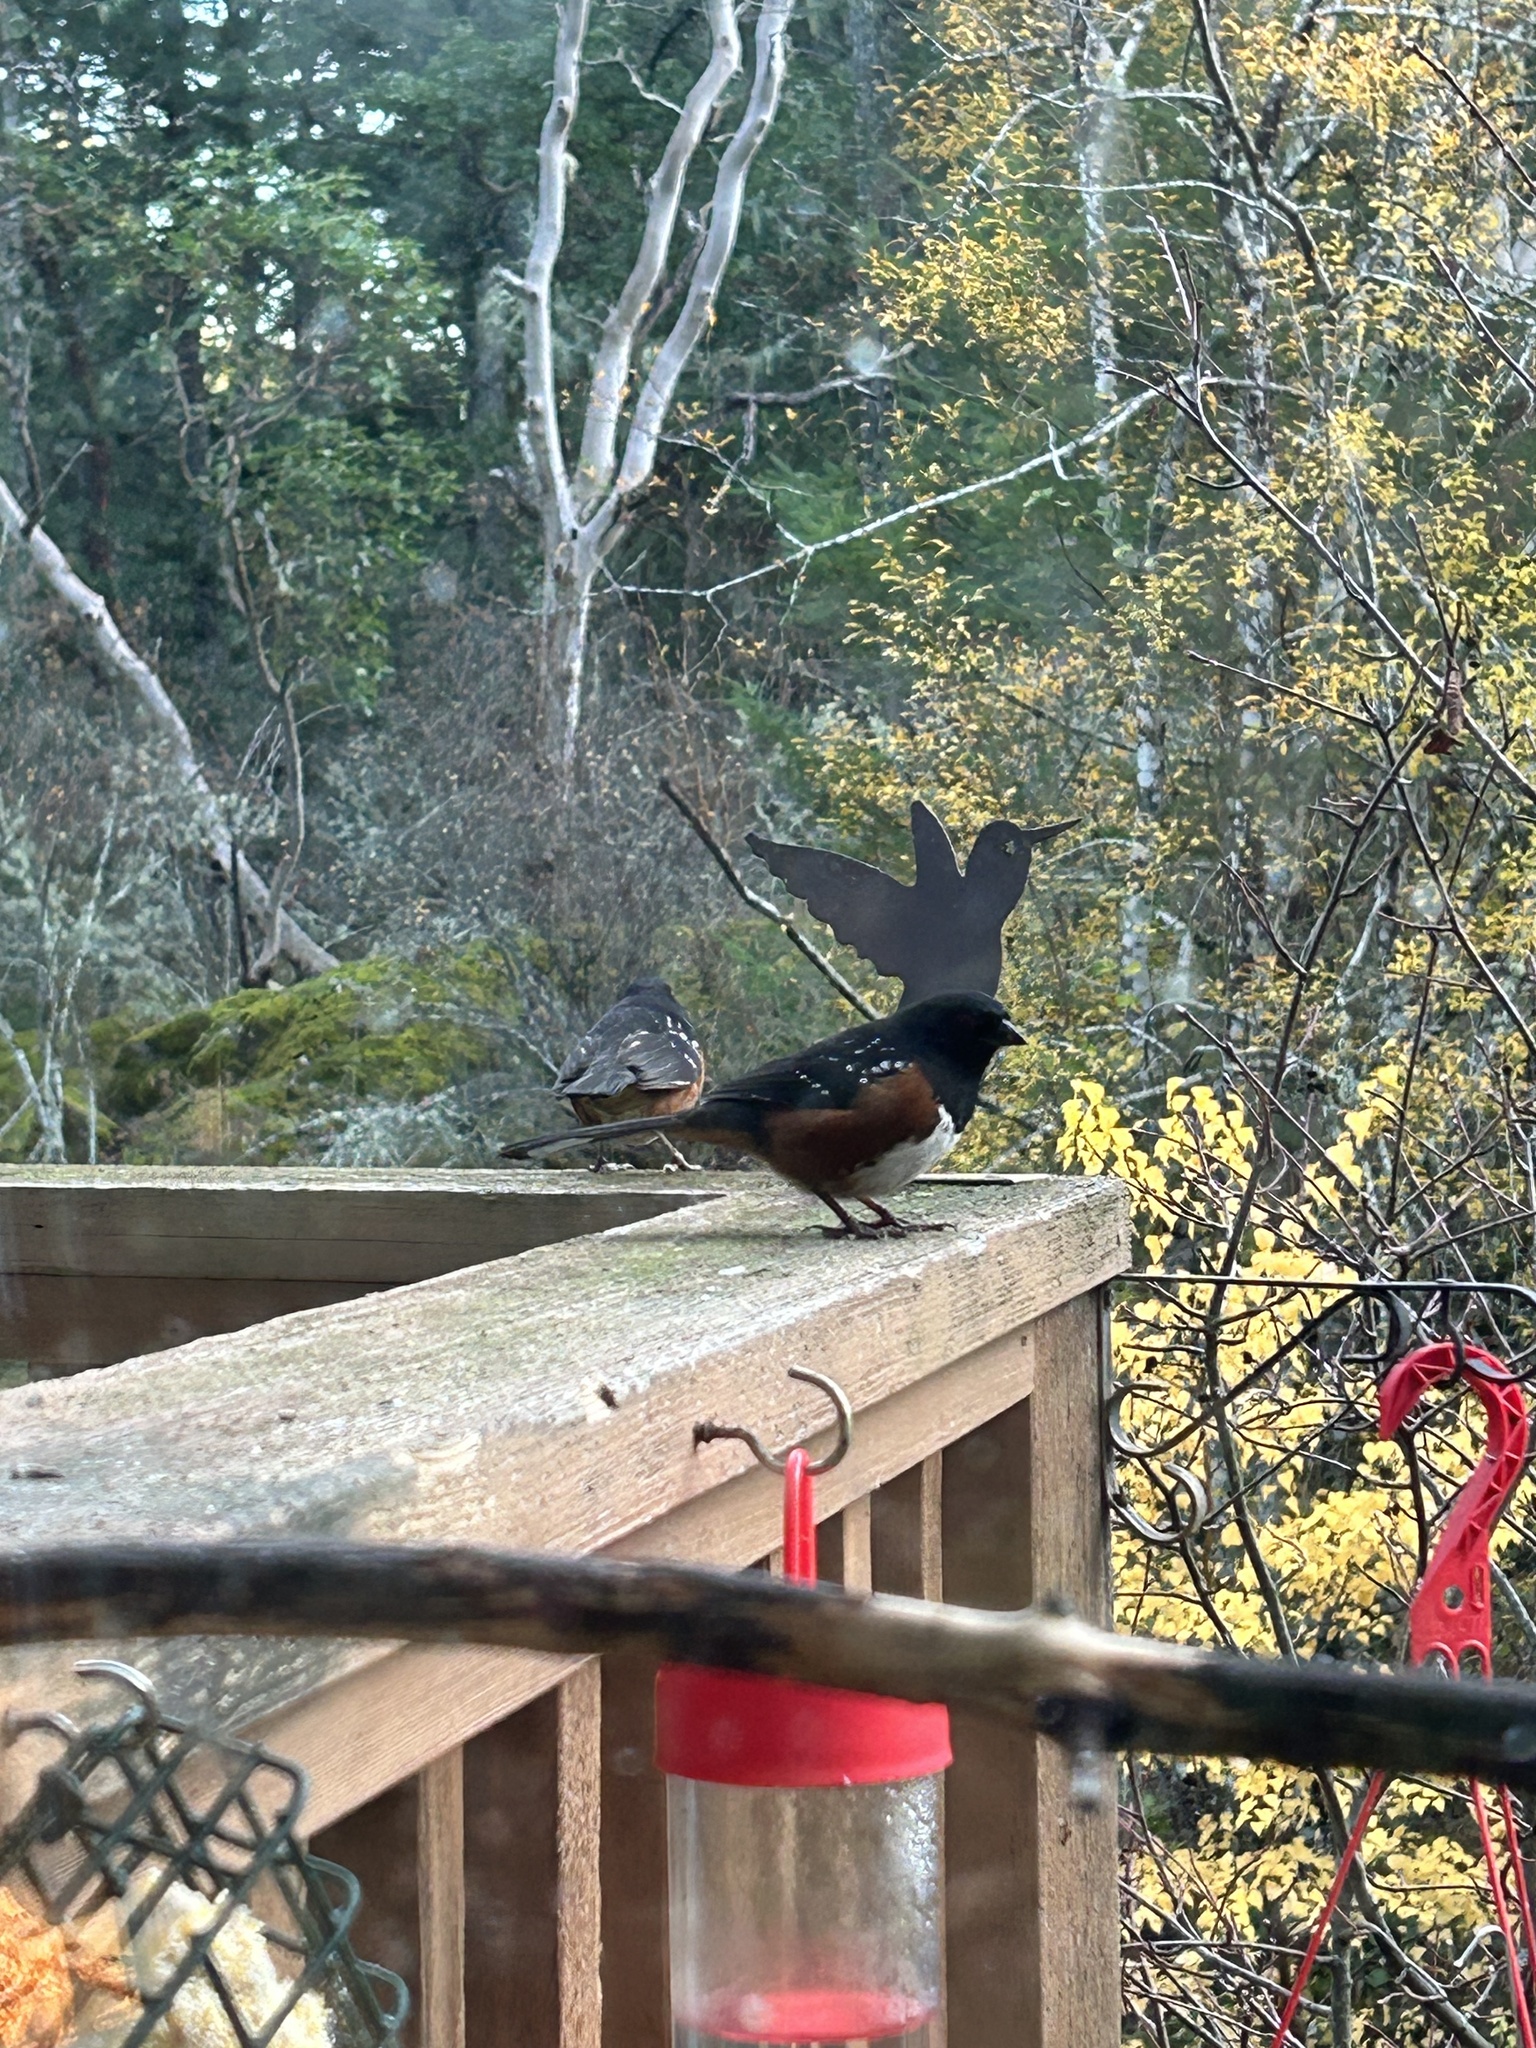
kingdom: Animalia
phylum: Chordata
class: Aves
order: Passeriformes
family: Passerellidae
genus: Pipilo
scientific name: Pipilo maculatus
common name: Spotted towhee
